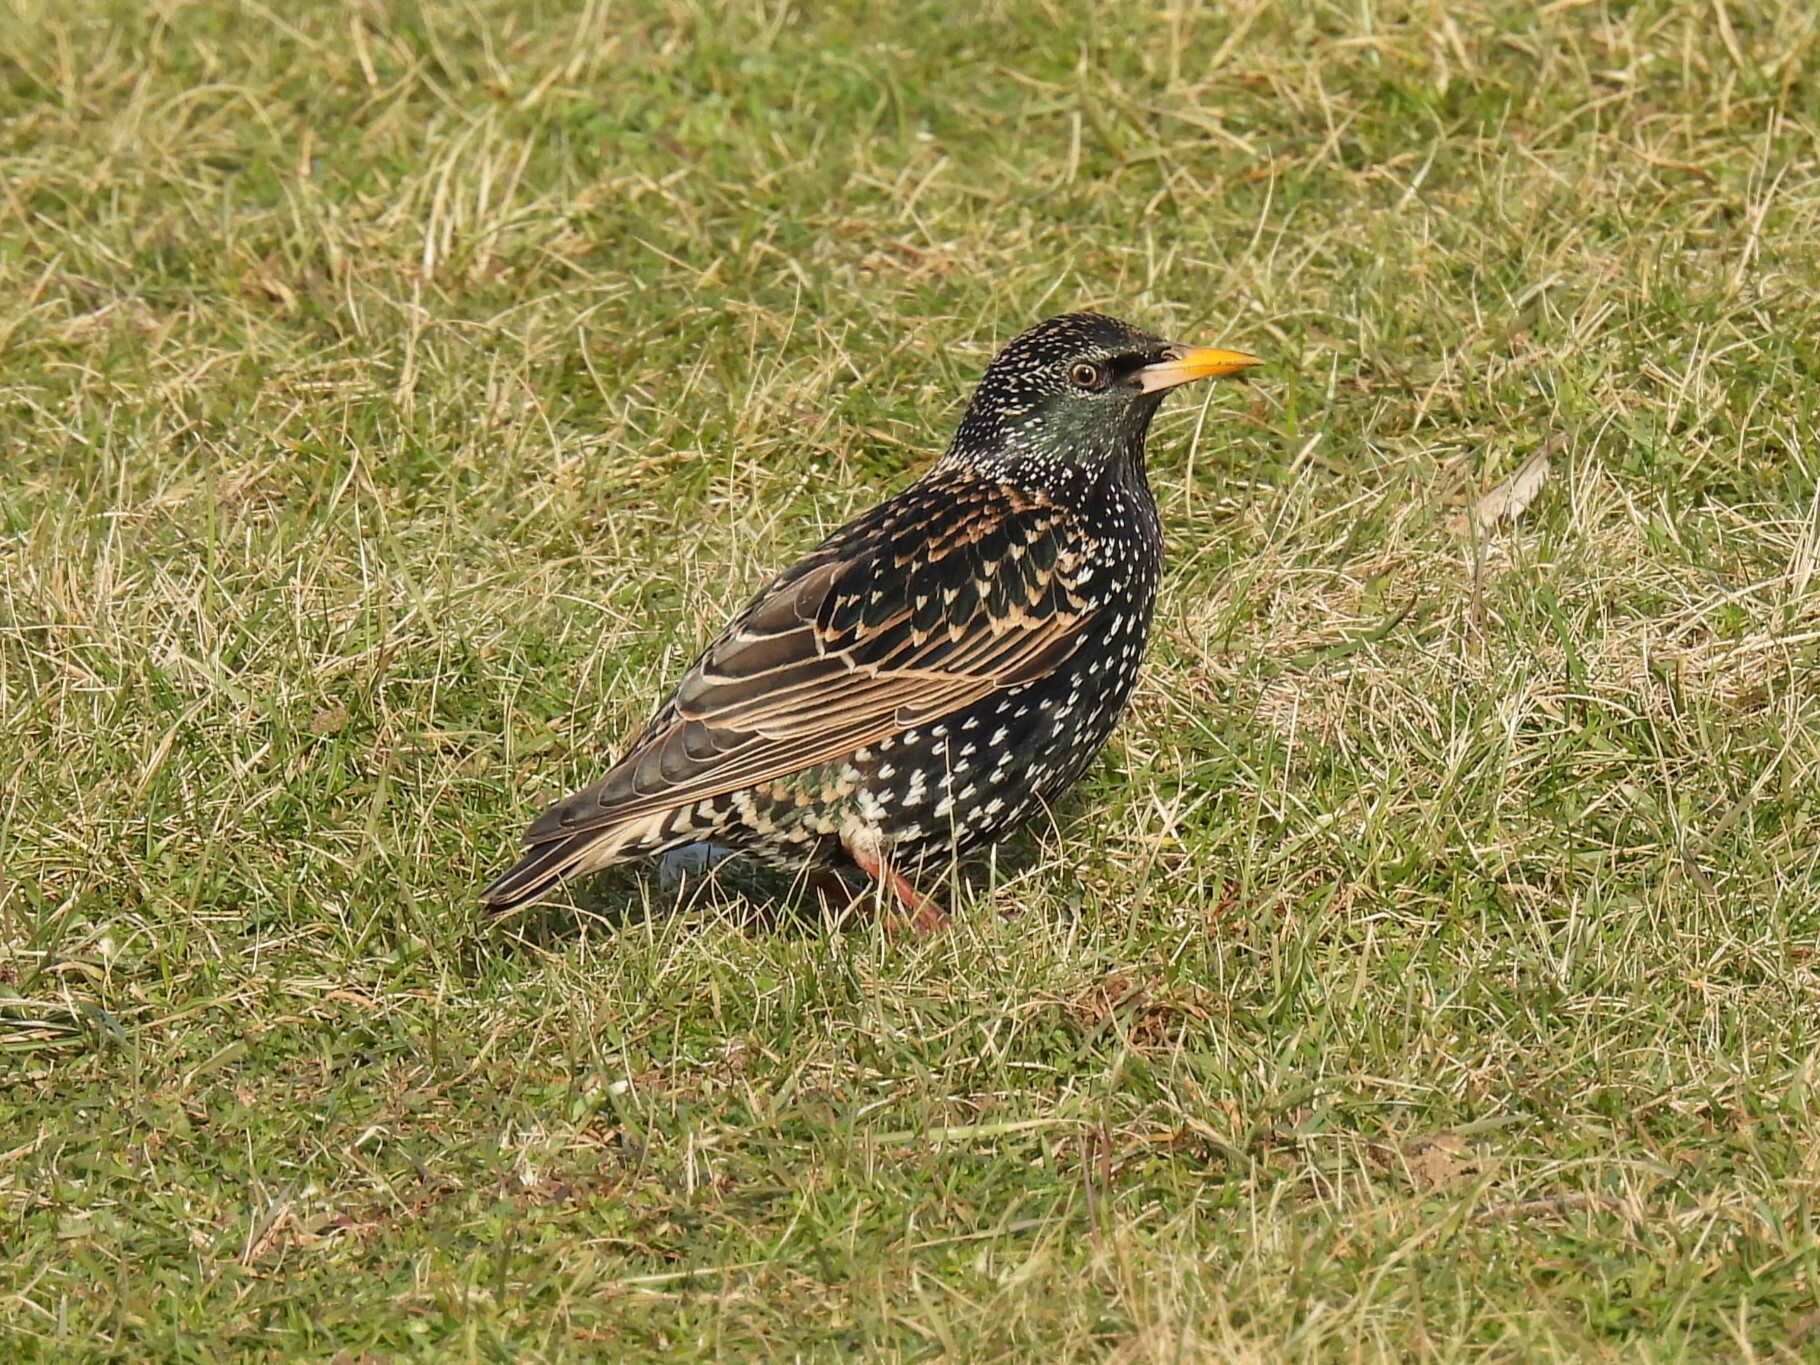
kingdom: Animalia
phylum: Chordata
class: Aves
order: Passeriformes
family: Sturnidae
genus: Sturnus
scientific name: Sturnus vulgaris
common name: Common starling
